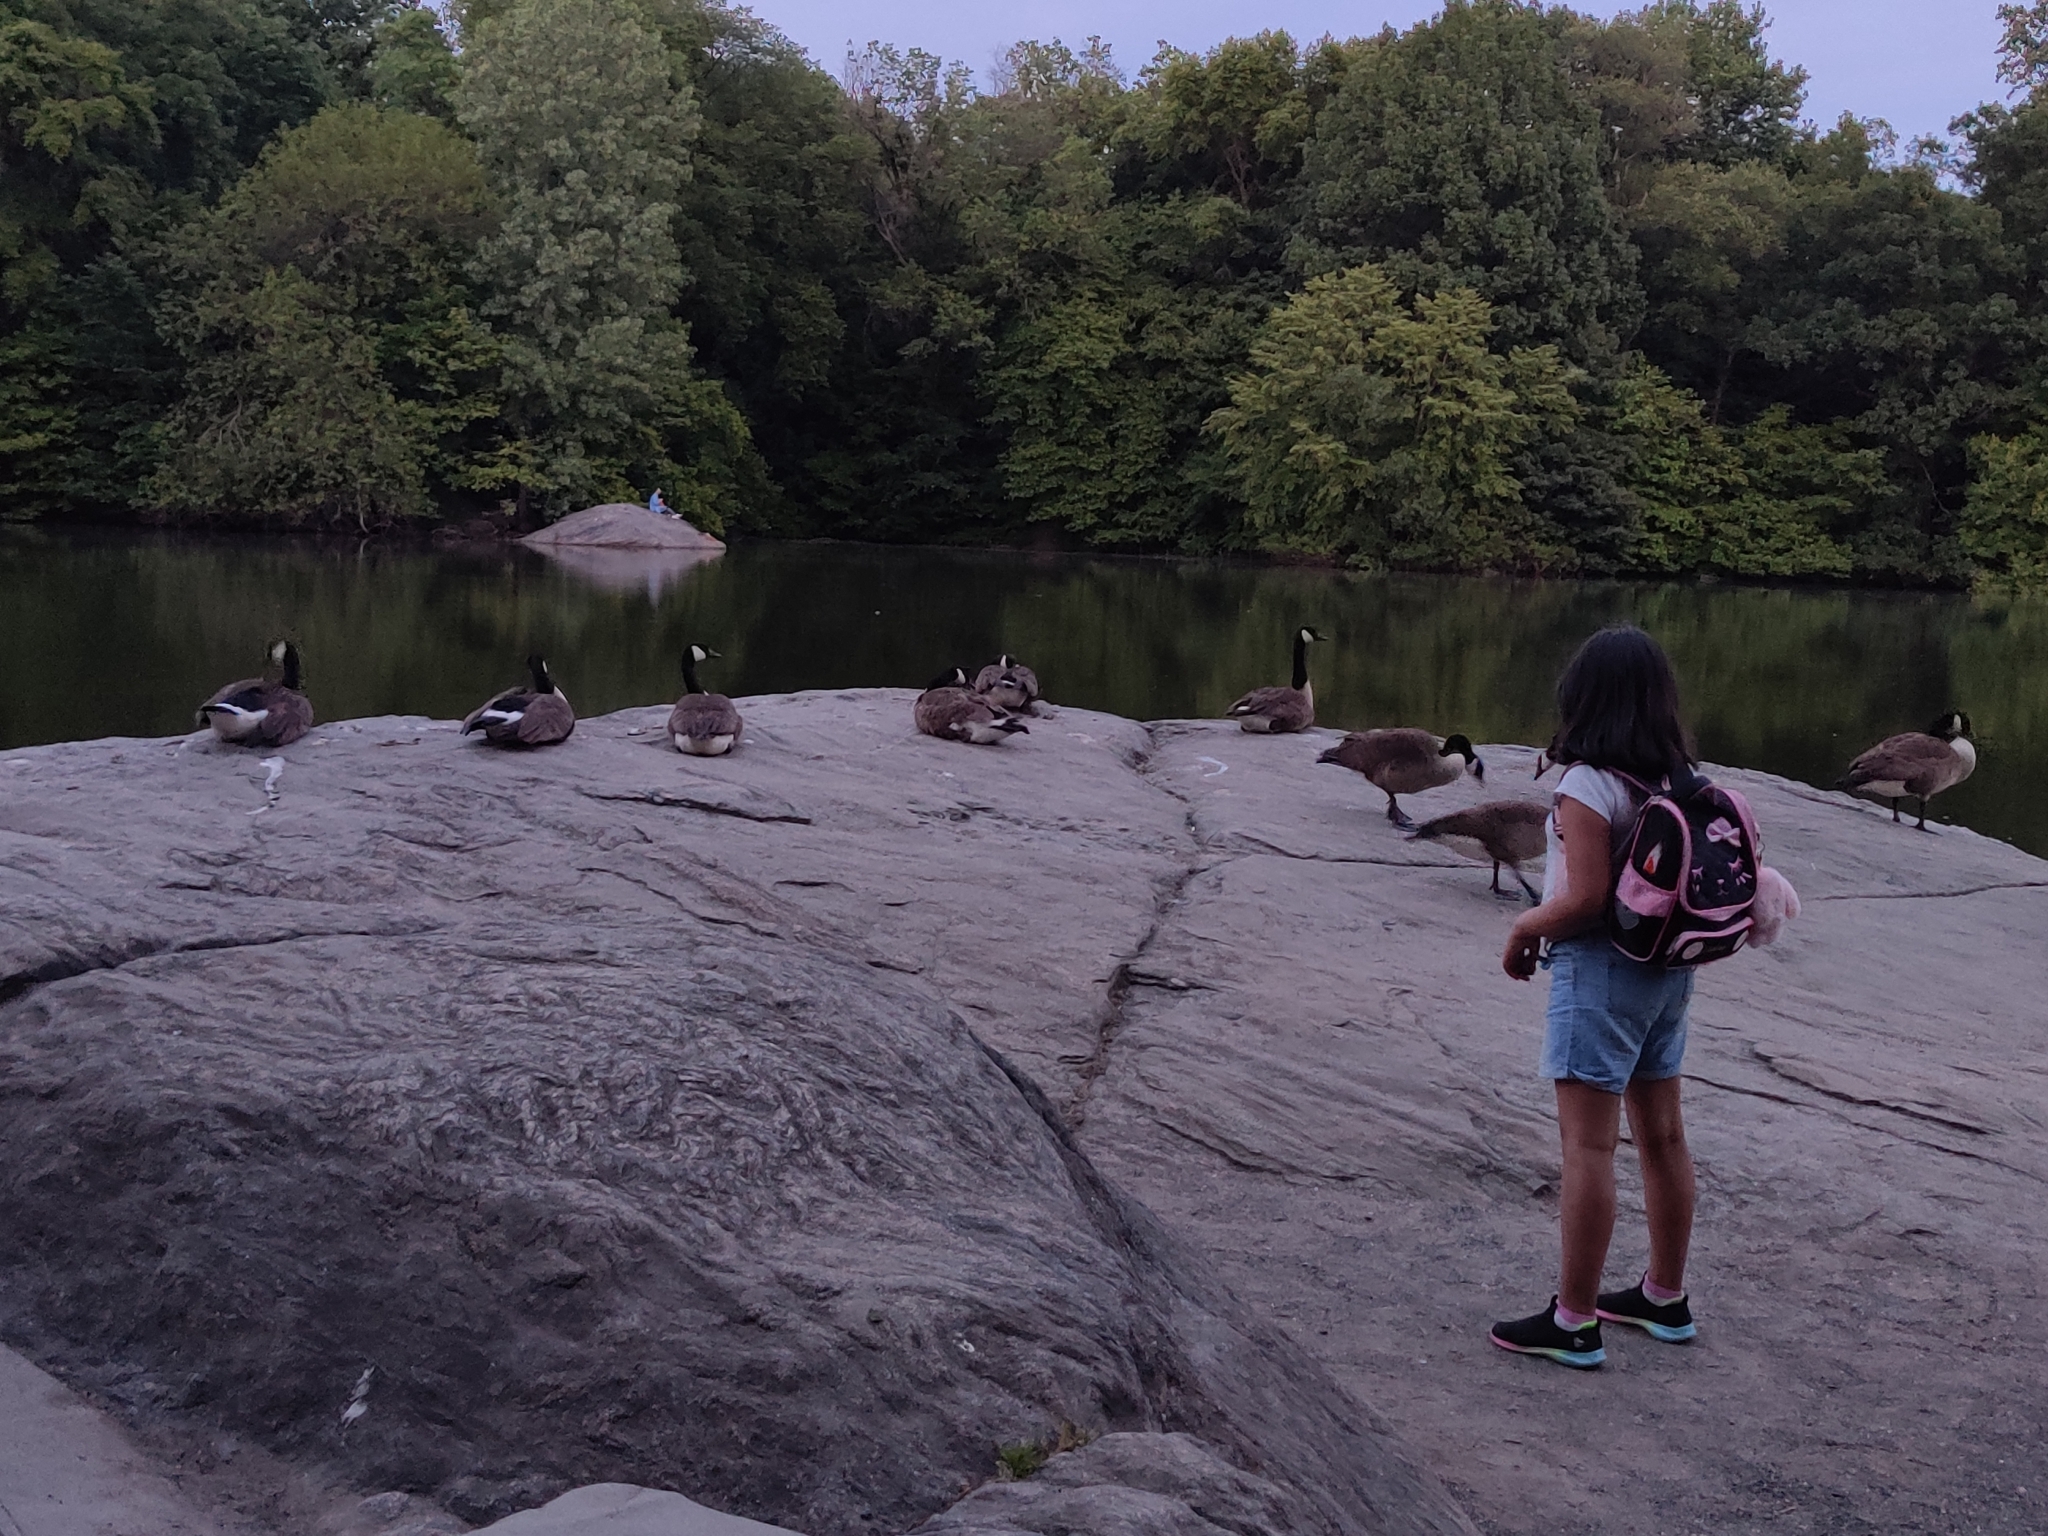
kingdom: Animalia
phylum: Chordata
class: Aves
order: Anseriformes
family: Anatidae
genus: Branta
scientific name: Branta canadensis
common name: Canada goose
